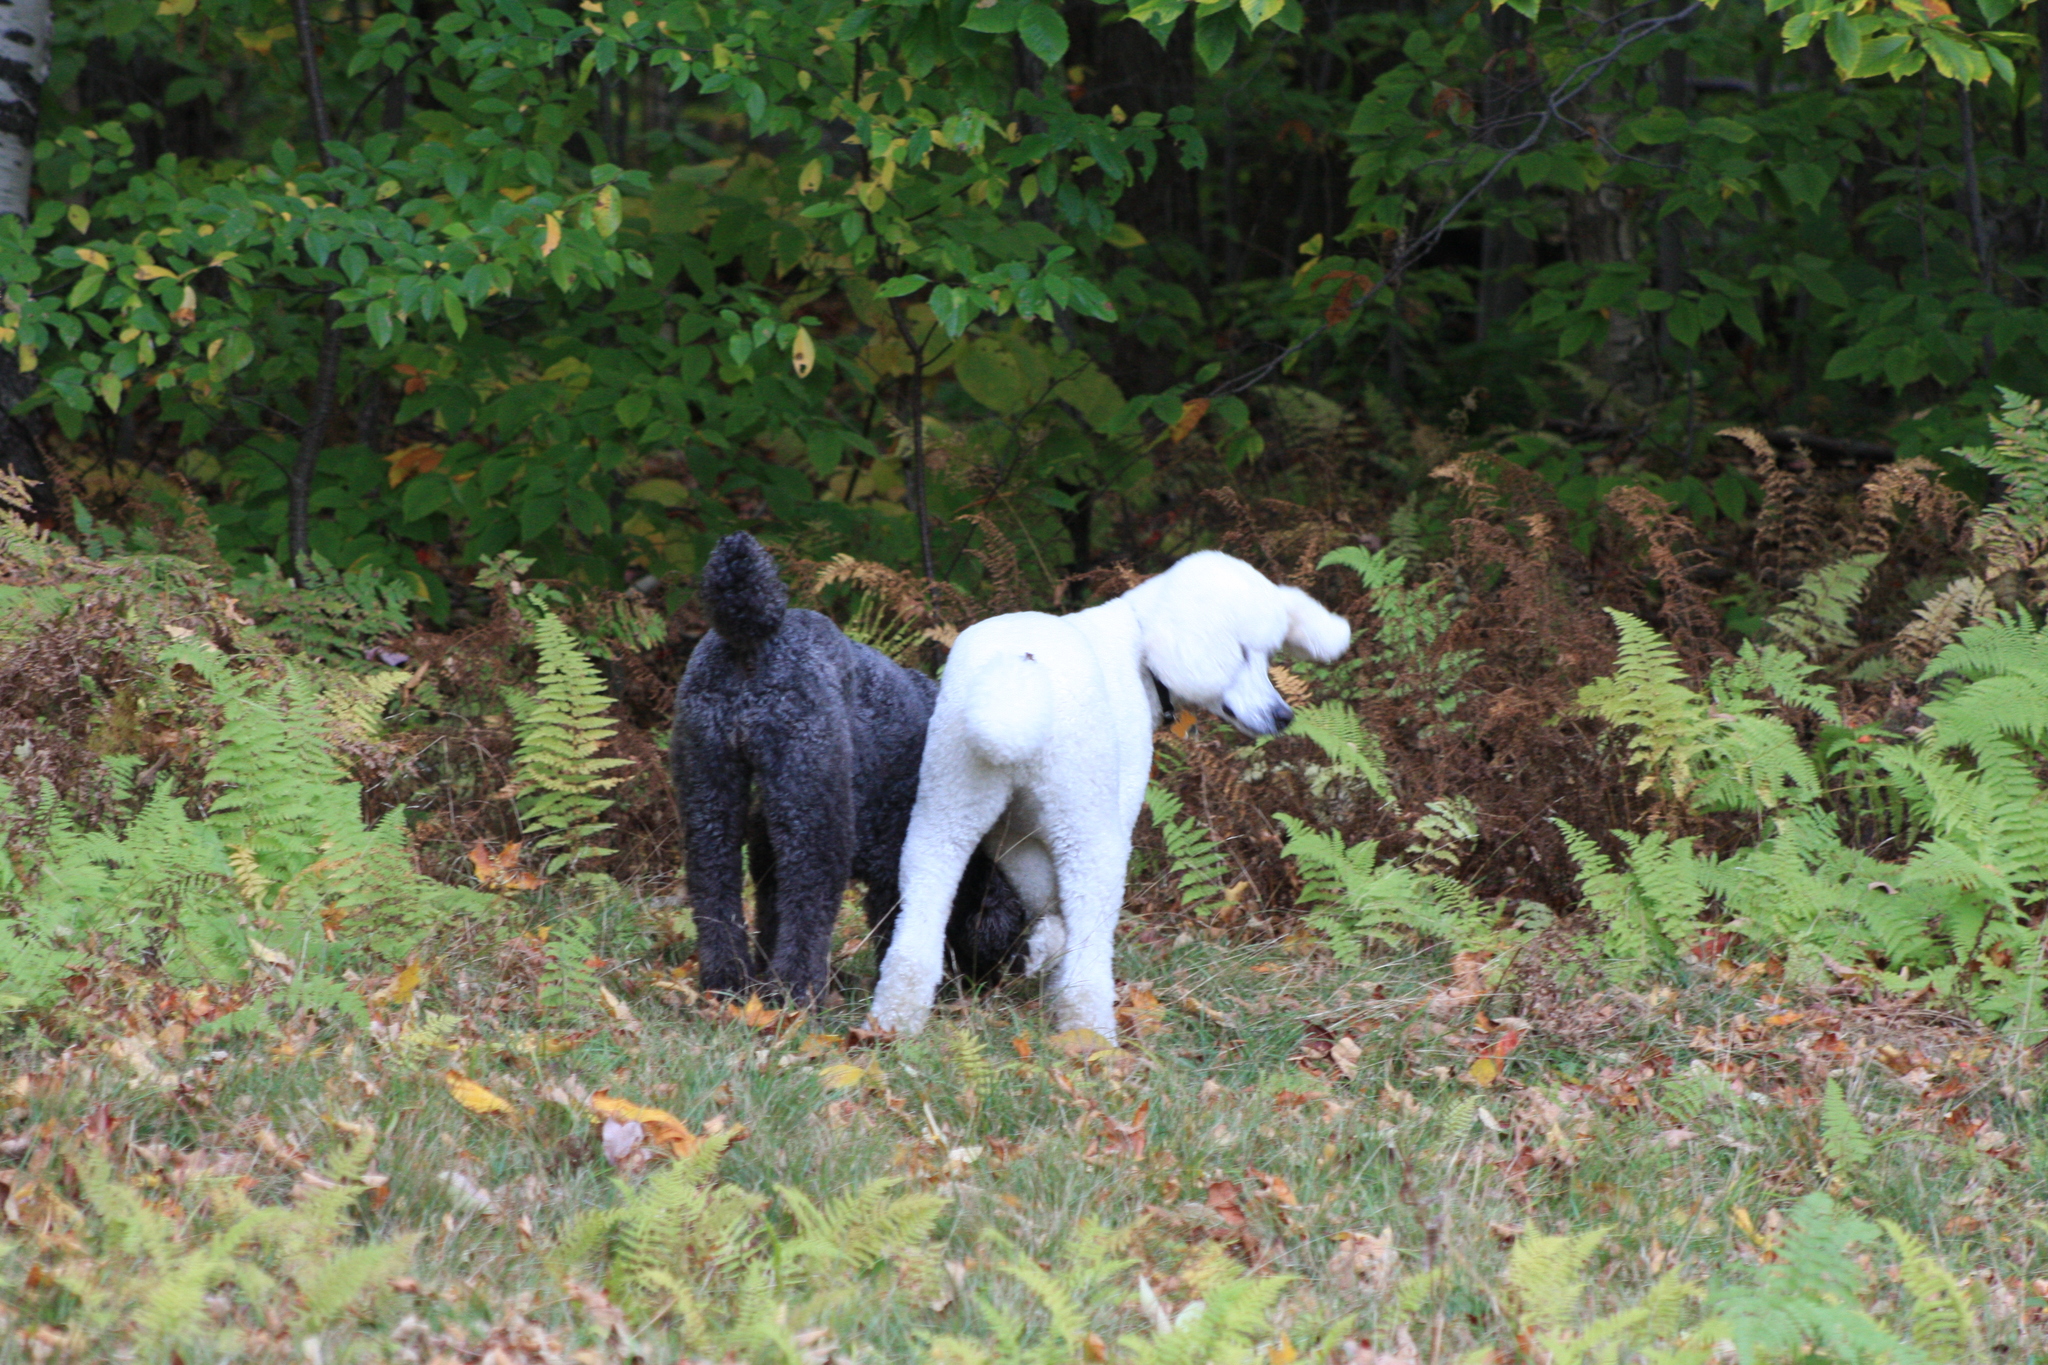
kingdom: Plantae
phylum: Tracheophyta
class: Magnoliopsida
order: Fagales
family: Fagaceae
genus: Fagus
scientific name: Fagus grandifolia
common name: American beech
